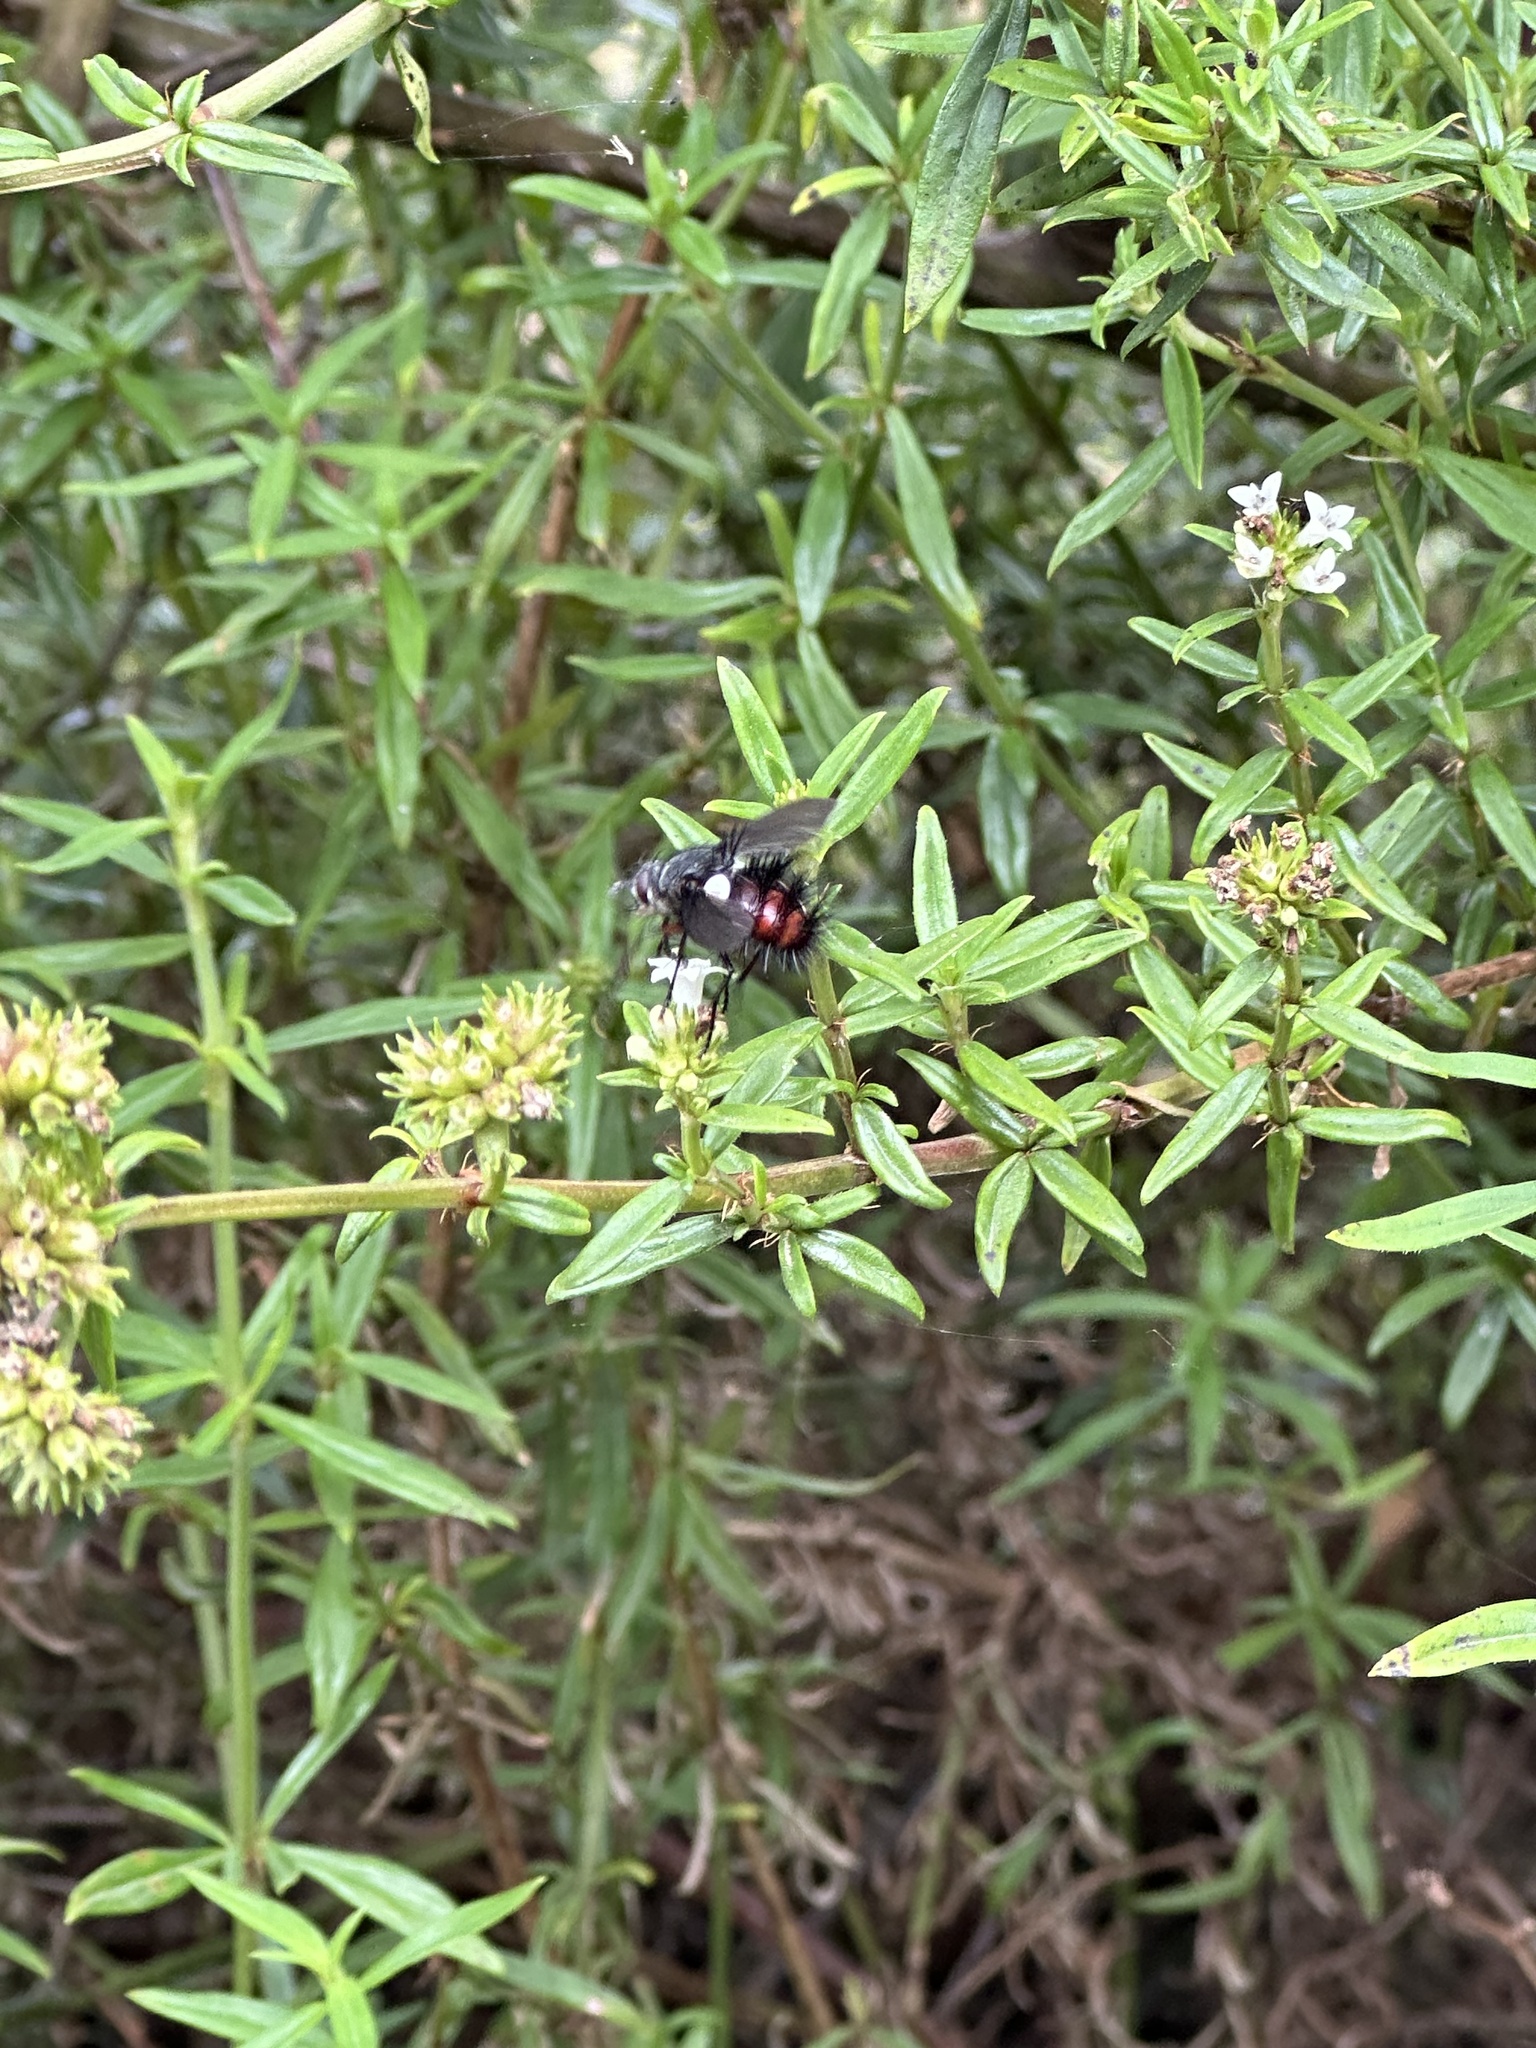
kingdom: Plantae
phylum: Tracheophyta
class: Magnoliopsida
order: Gentianales
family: Rubiaceae
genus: Galianthe
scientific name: Galianthe bogotensis
